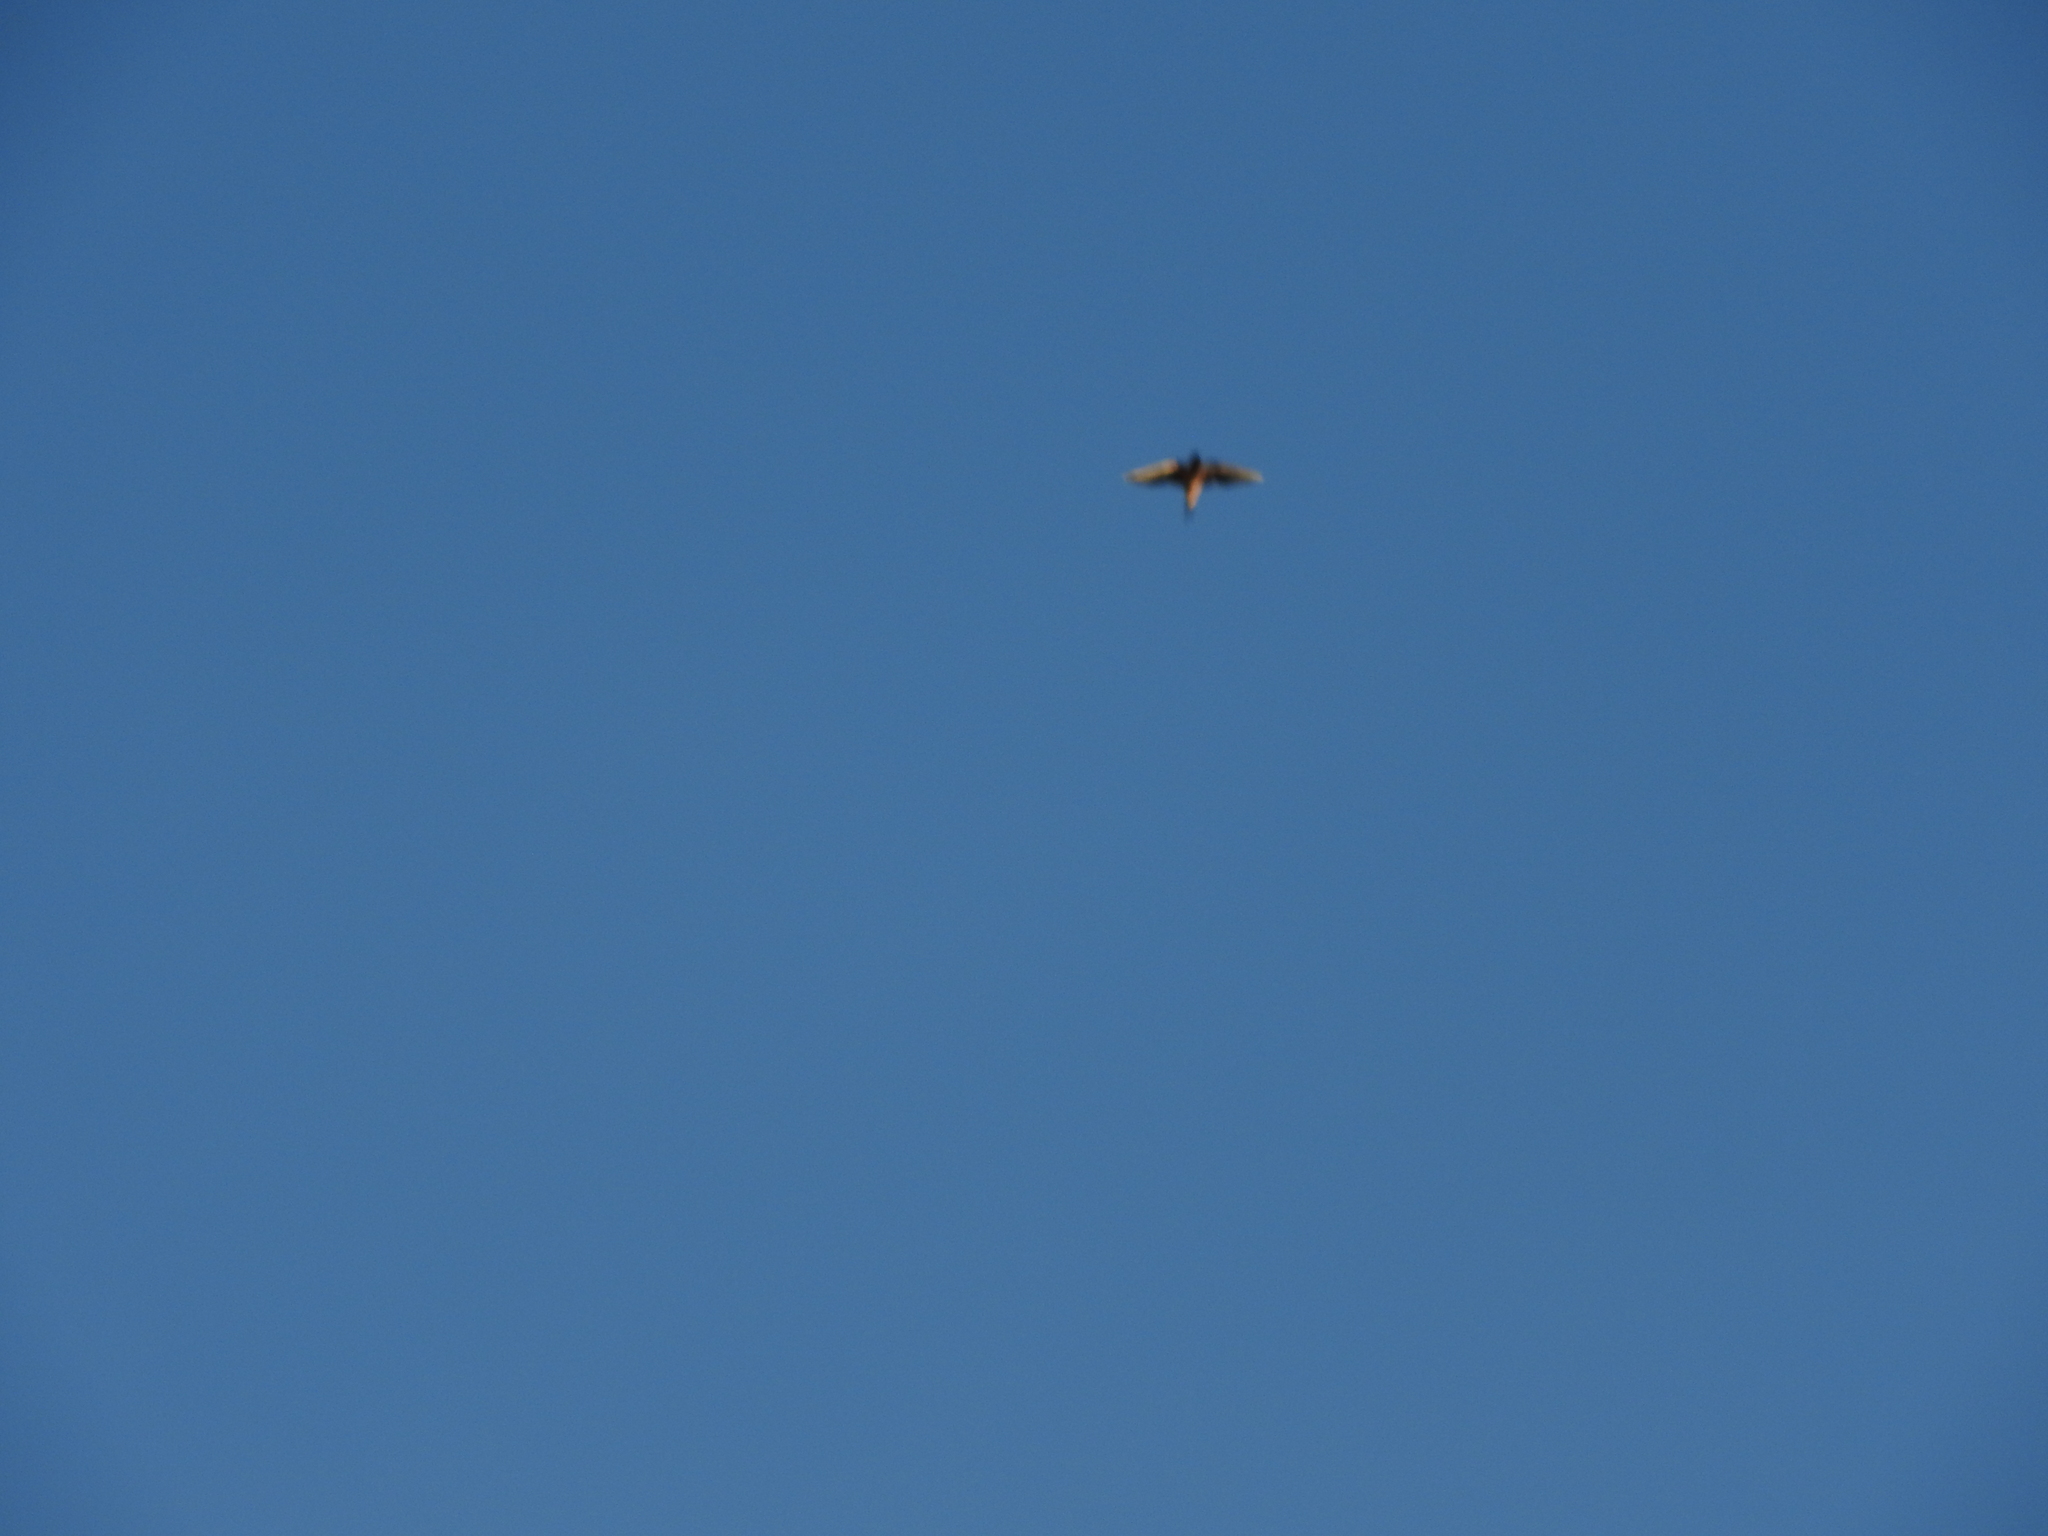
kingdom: Animalia
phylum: Chordata
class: Aves
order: Passeriformes
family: Hirundinidae
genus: Hirundo
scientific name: Hirundo rustica
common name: Barn swallow
